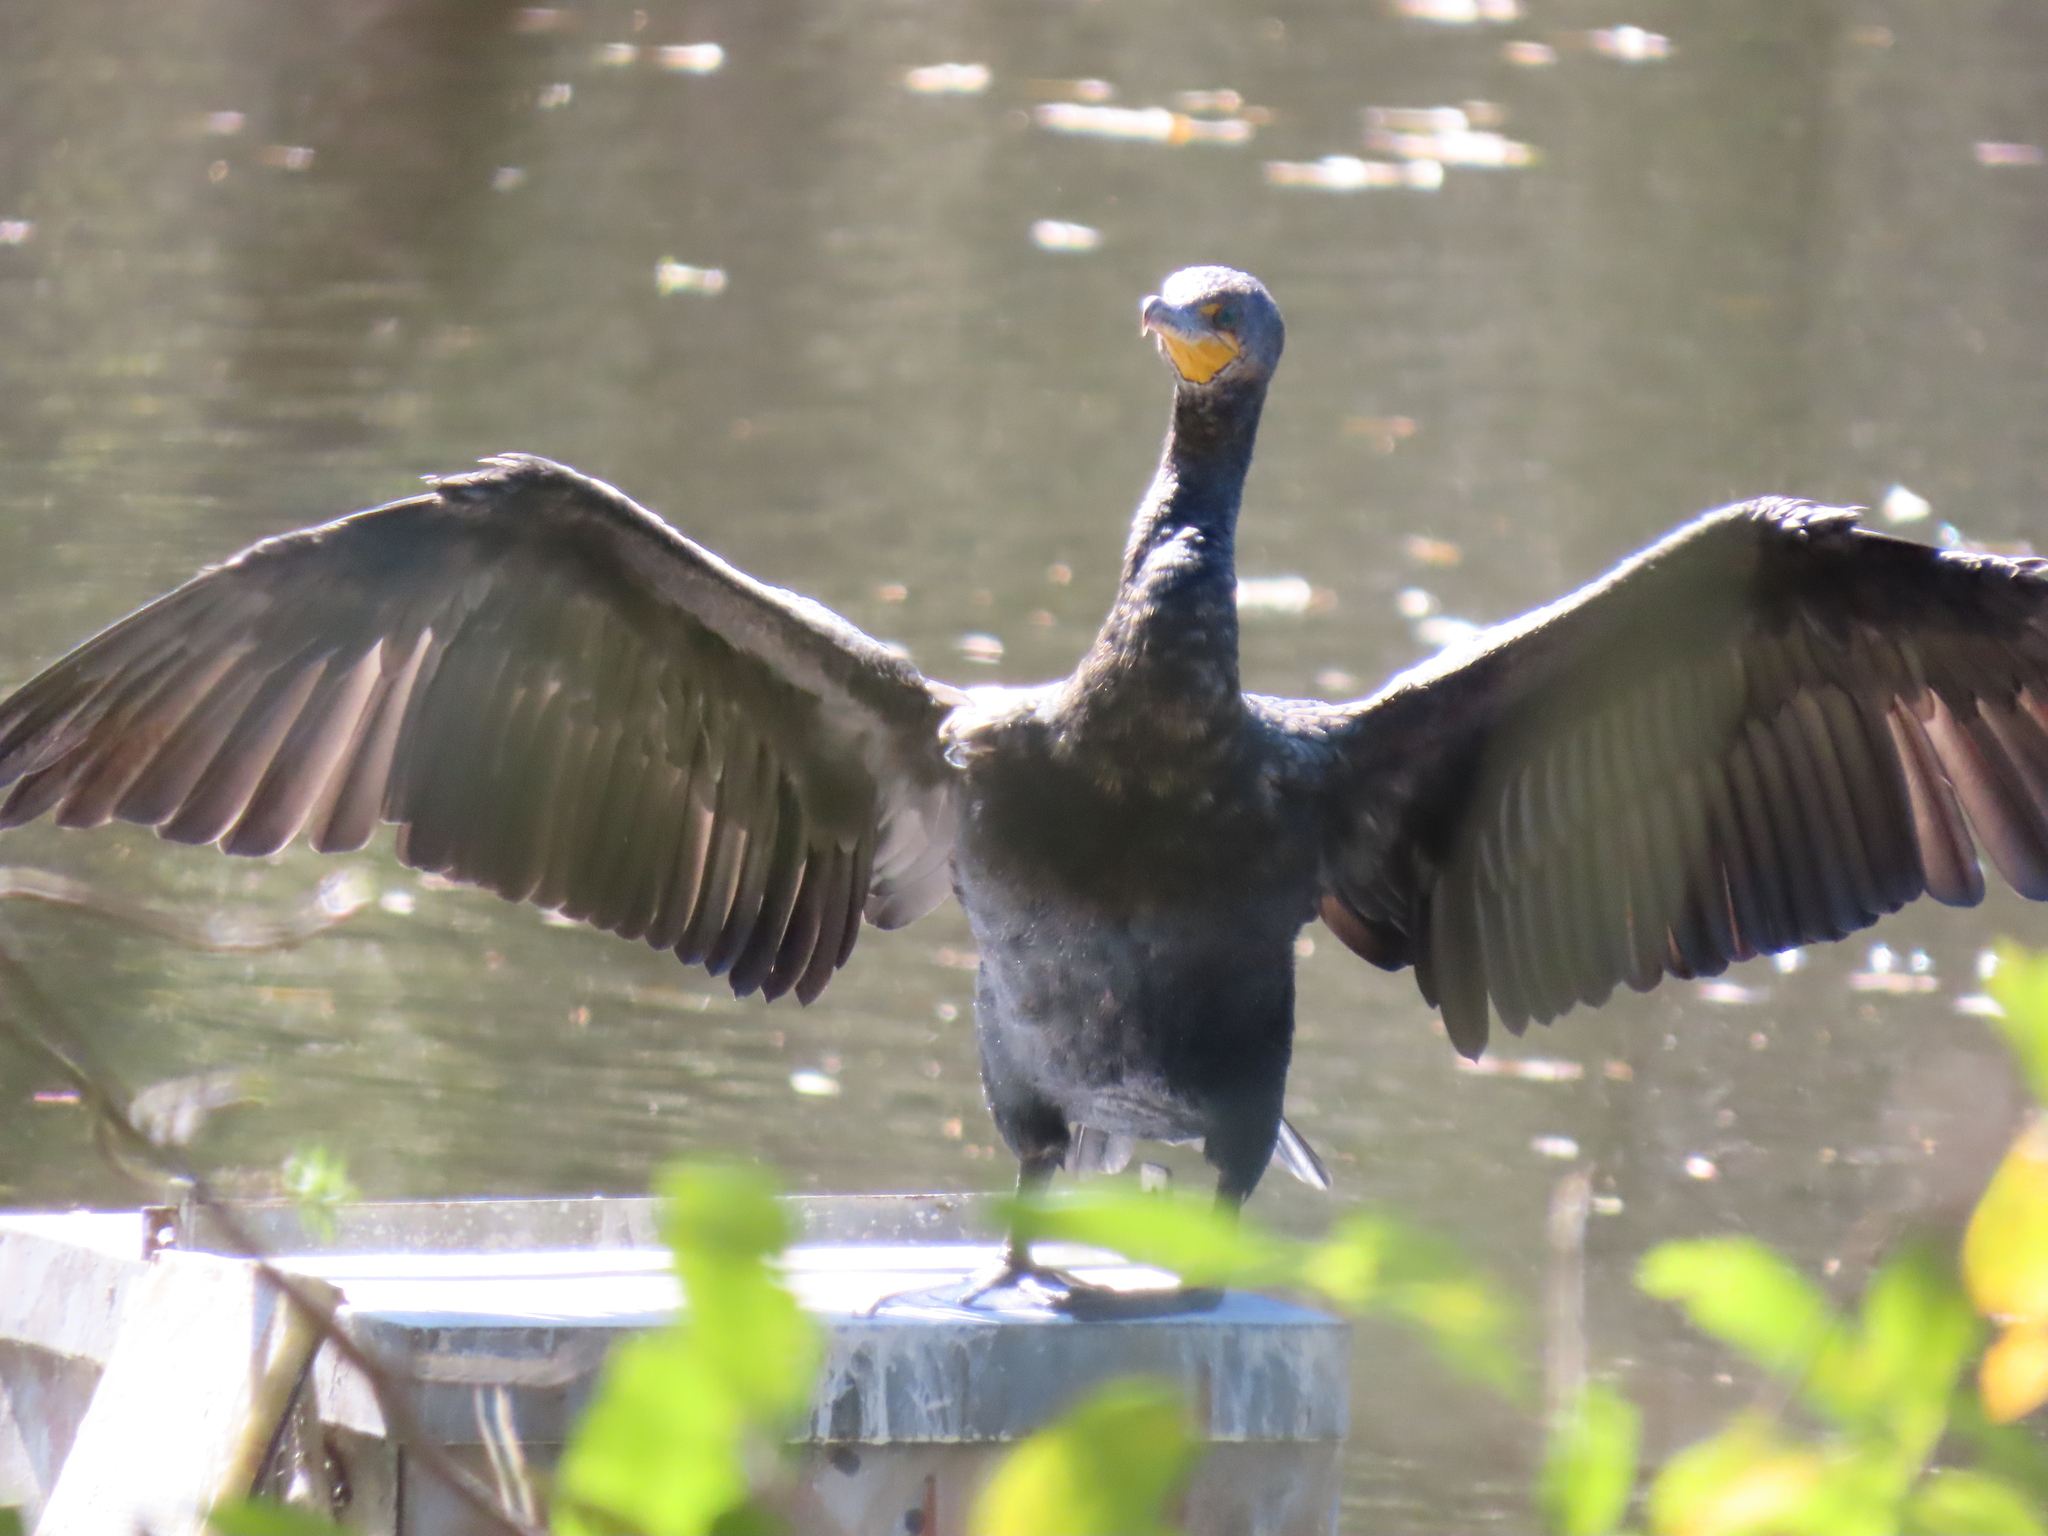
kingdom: Animalia
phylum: Chordata
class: Aves
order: Suliformes
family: Phalacrocoracidae
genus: Phalacrocorax
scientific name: Phalacrocorax auritus
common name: Double-crested cormorant
